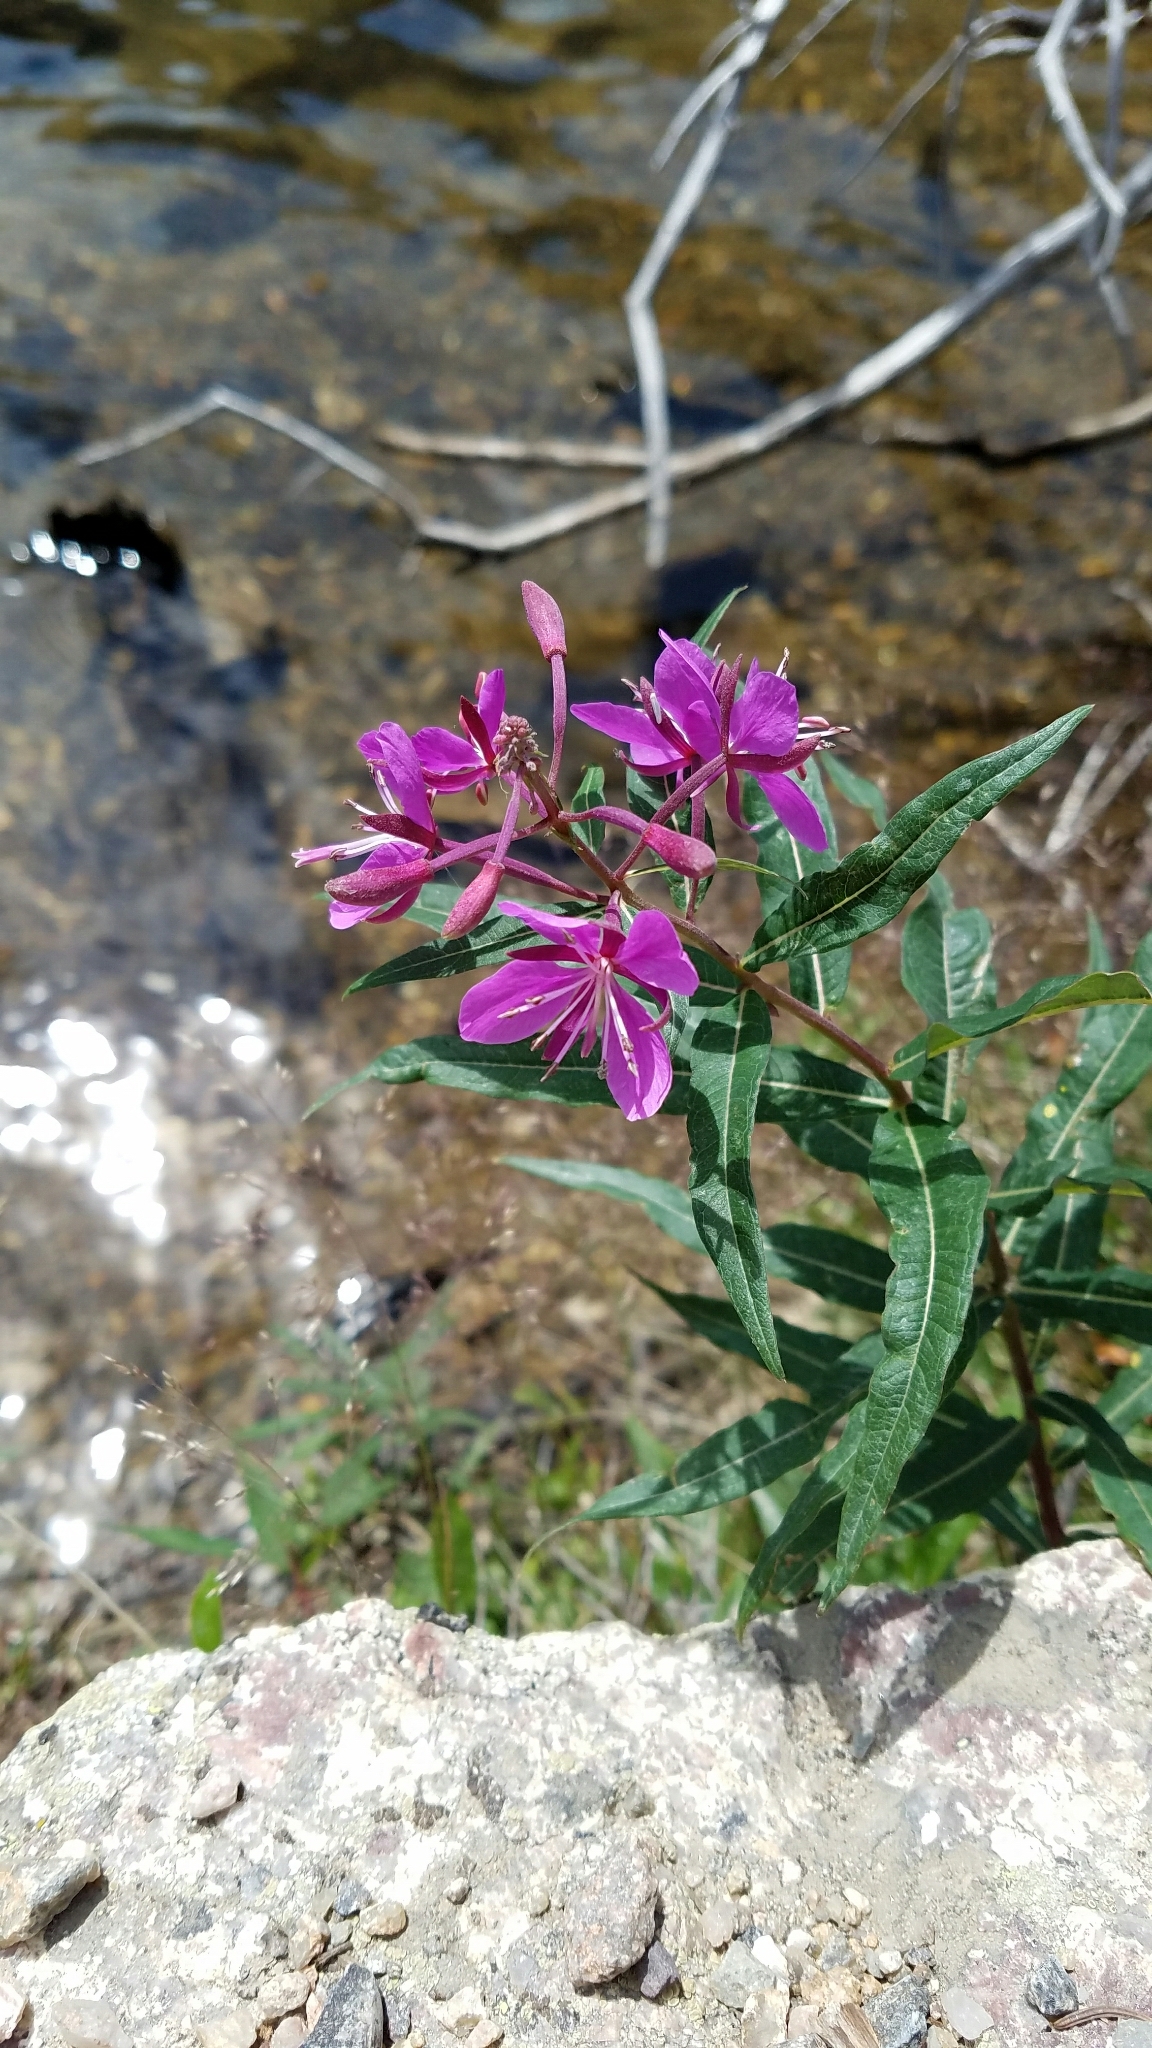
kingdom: Plantae
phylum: Tracheophyta
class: Magnoliopsida
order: Myrtales
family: Onagraceae
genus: Chamaenerion
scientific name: Chamaenerion angustifolium
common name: Fireweed
